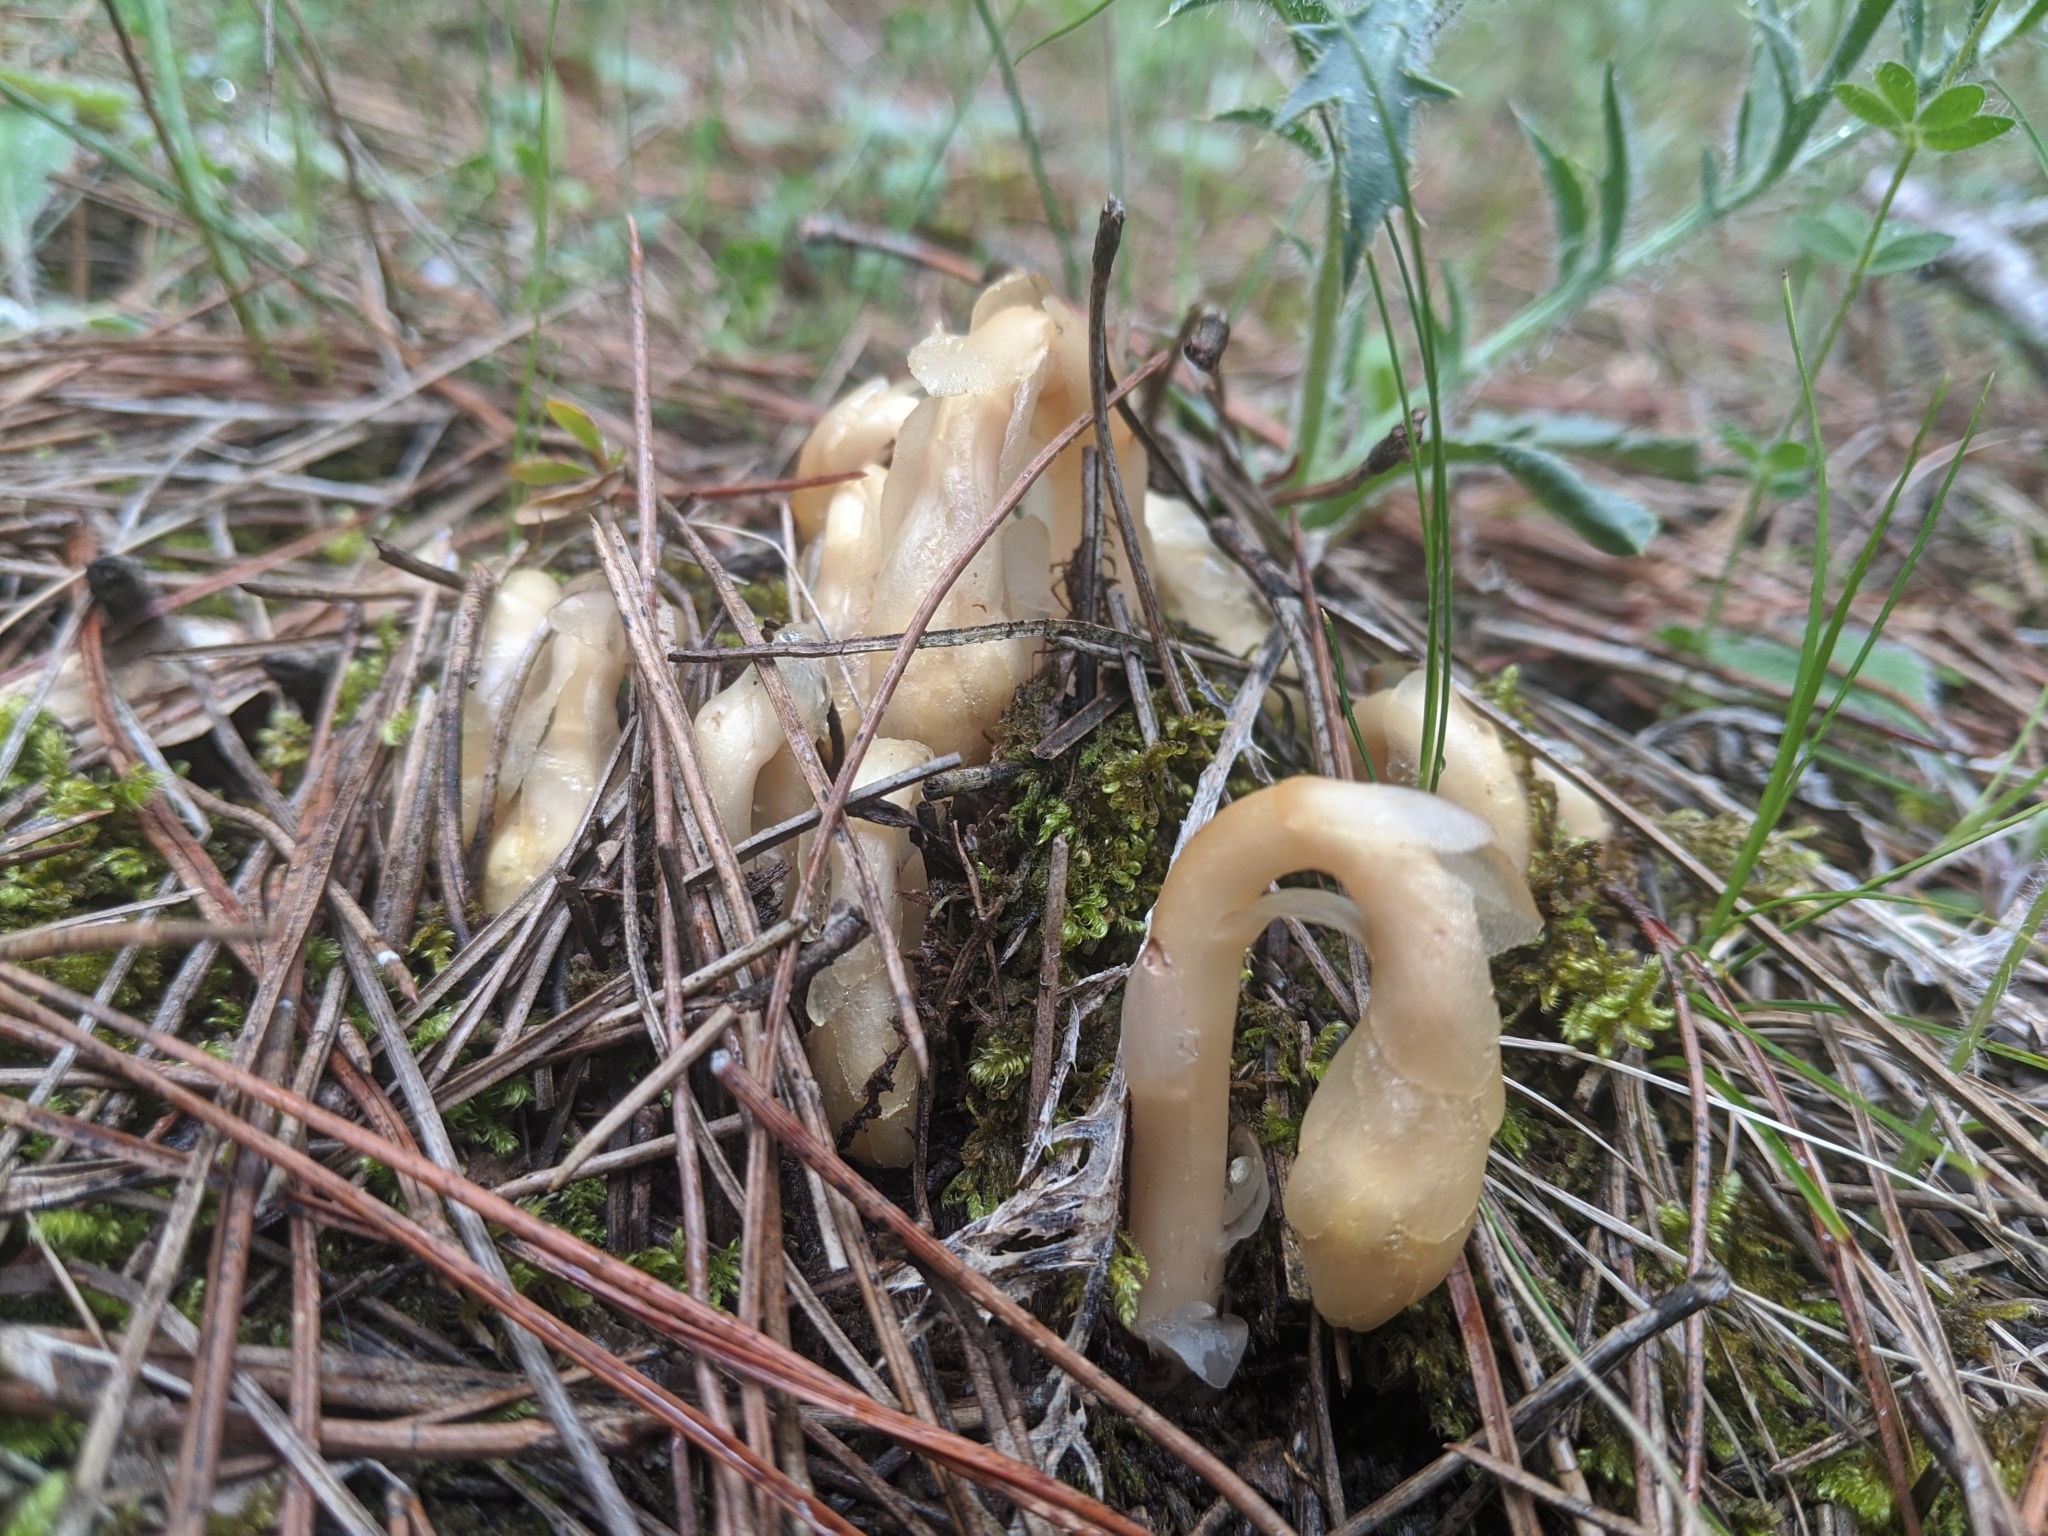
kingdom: Plantae
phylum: Tracheophyta
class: Magnoliopsida
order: Ericales
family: Ericaceae
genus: Hypopitys
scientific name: Hypopitys monotropa
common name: Yellow bird's-nest
